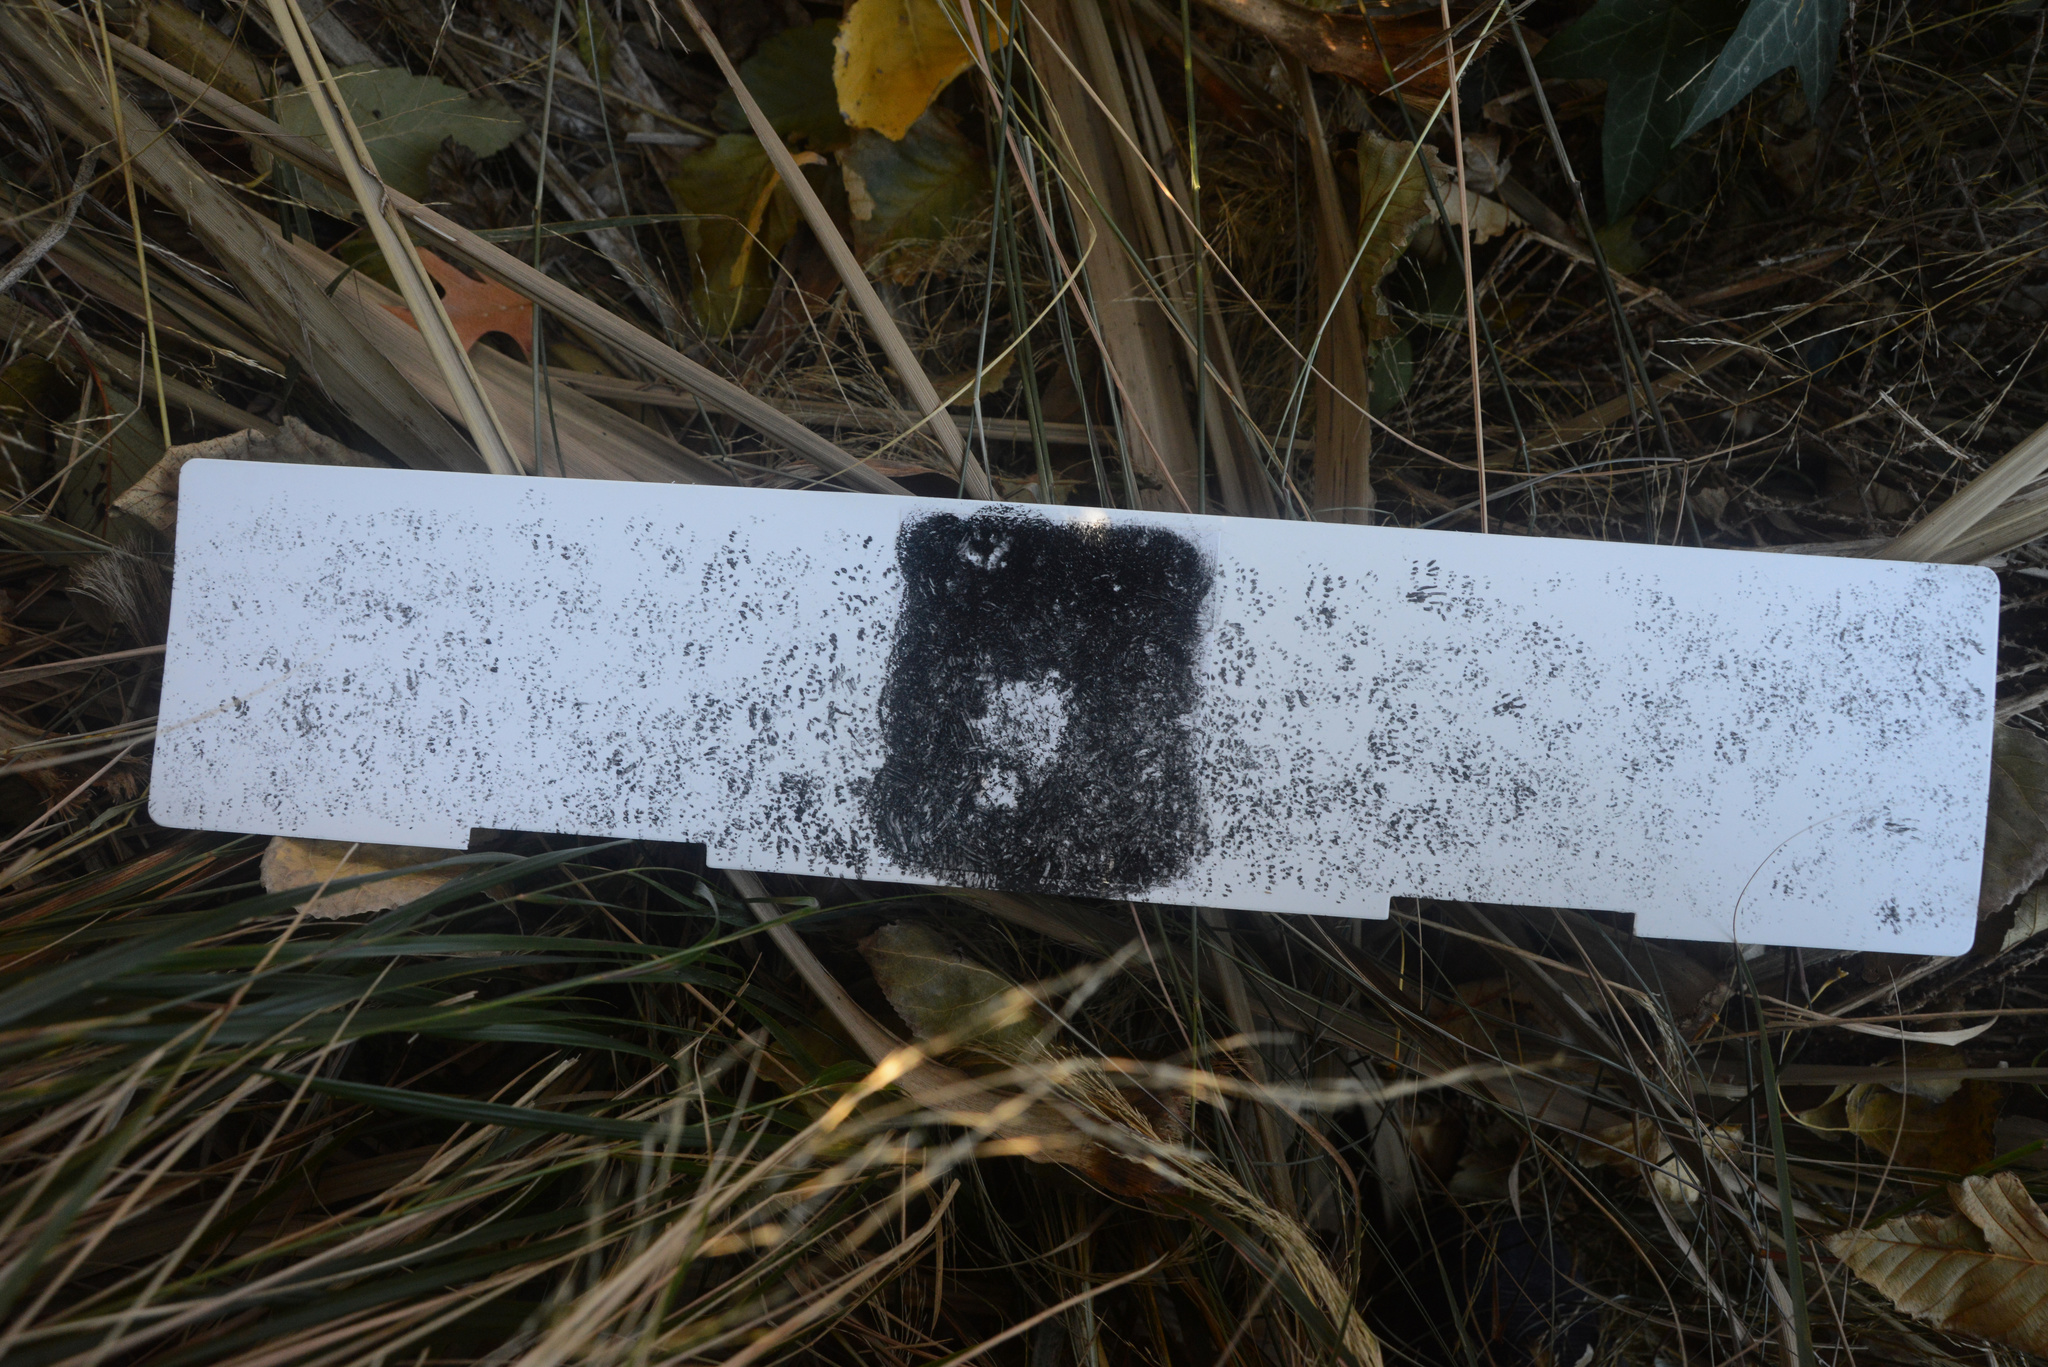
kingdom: Animalia
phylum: Chordata
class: Mammalia
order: Rodentia
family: Muridae
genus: Mus
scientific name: Mus musculus
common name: House mouse
